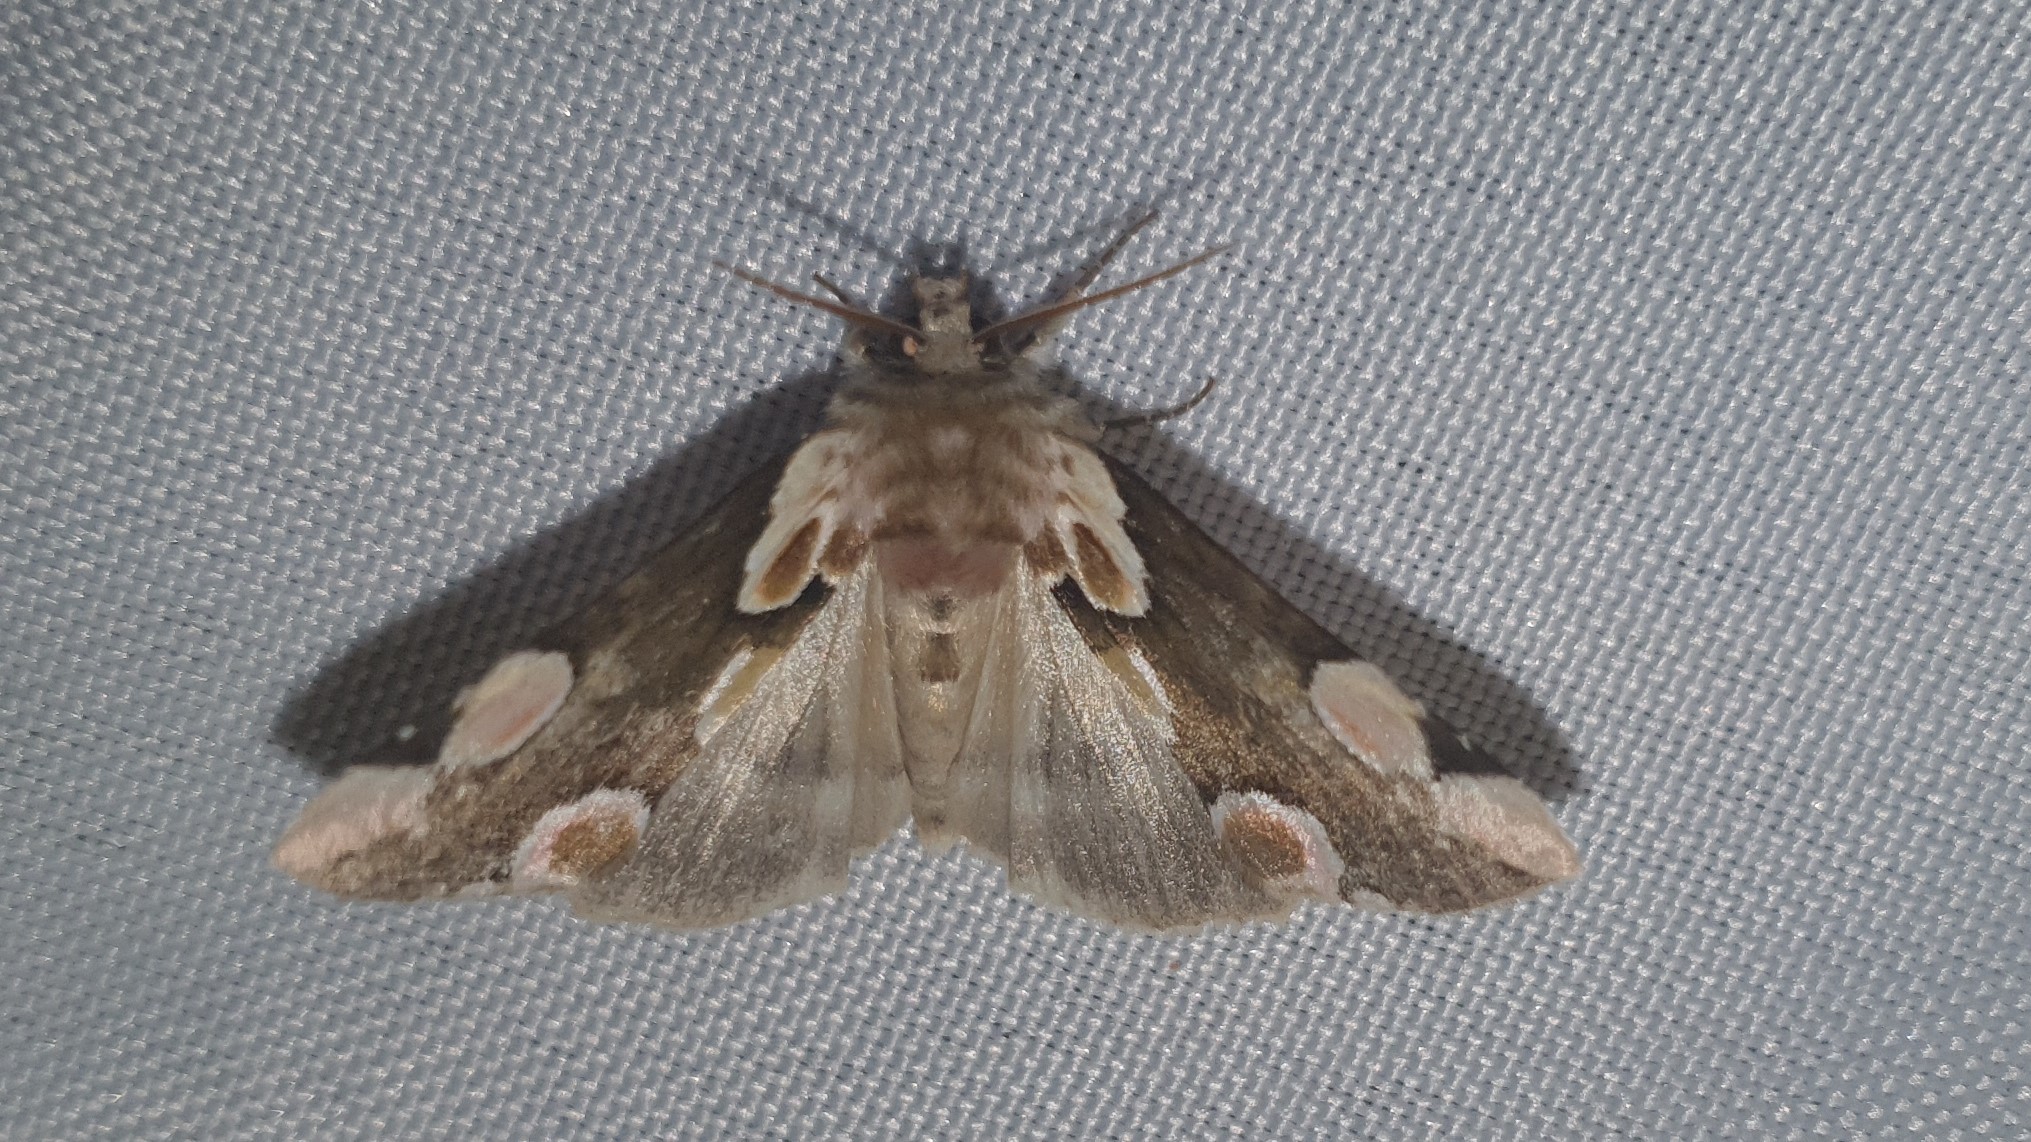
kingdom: Animalia
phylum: Arthropoda
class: Insecta
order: Lepidoptera
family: Drepanidae
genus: Thyatira
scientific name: Thyatira batis
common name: Peach blossom
